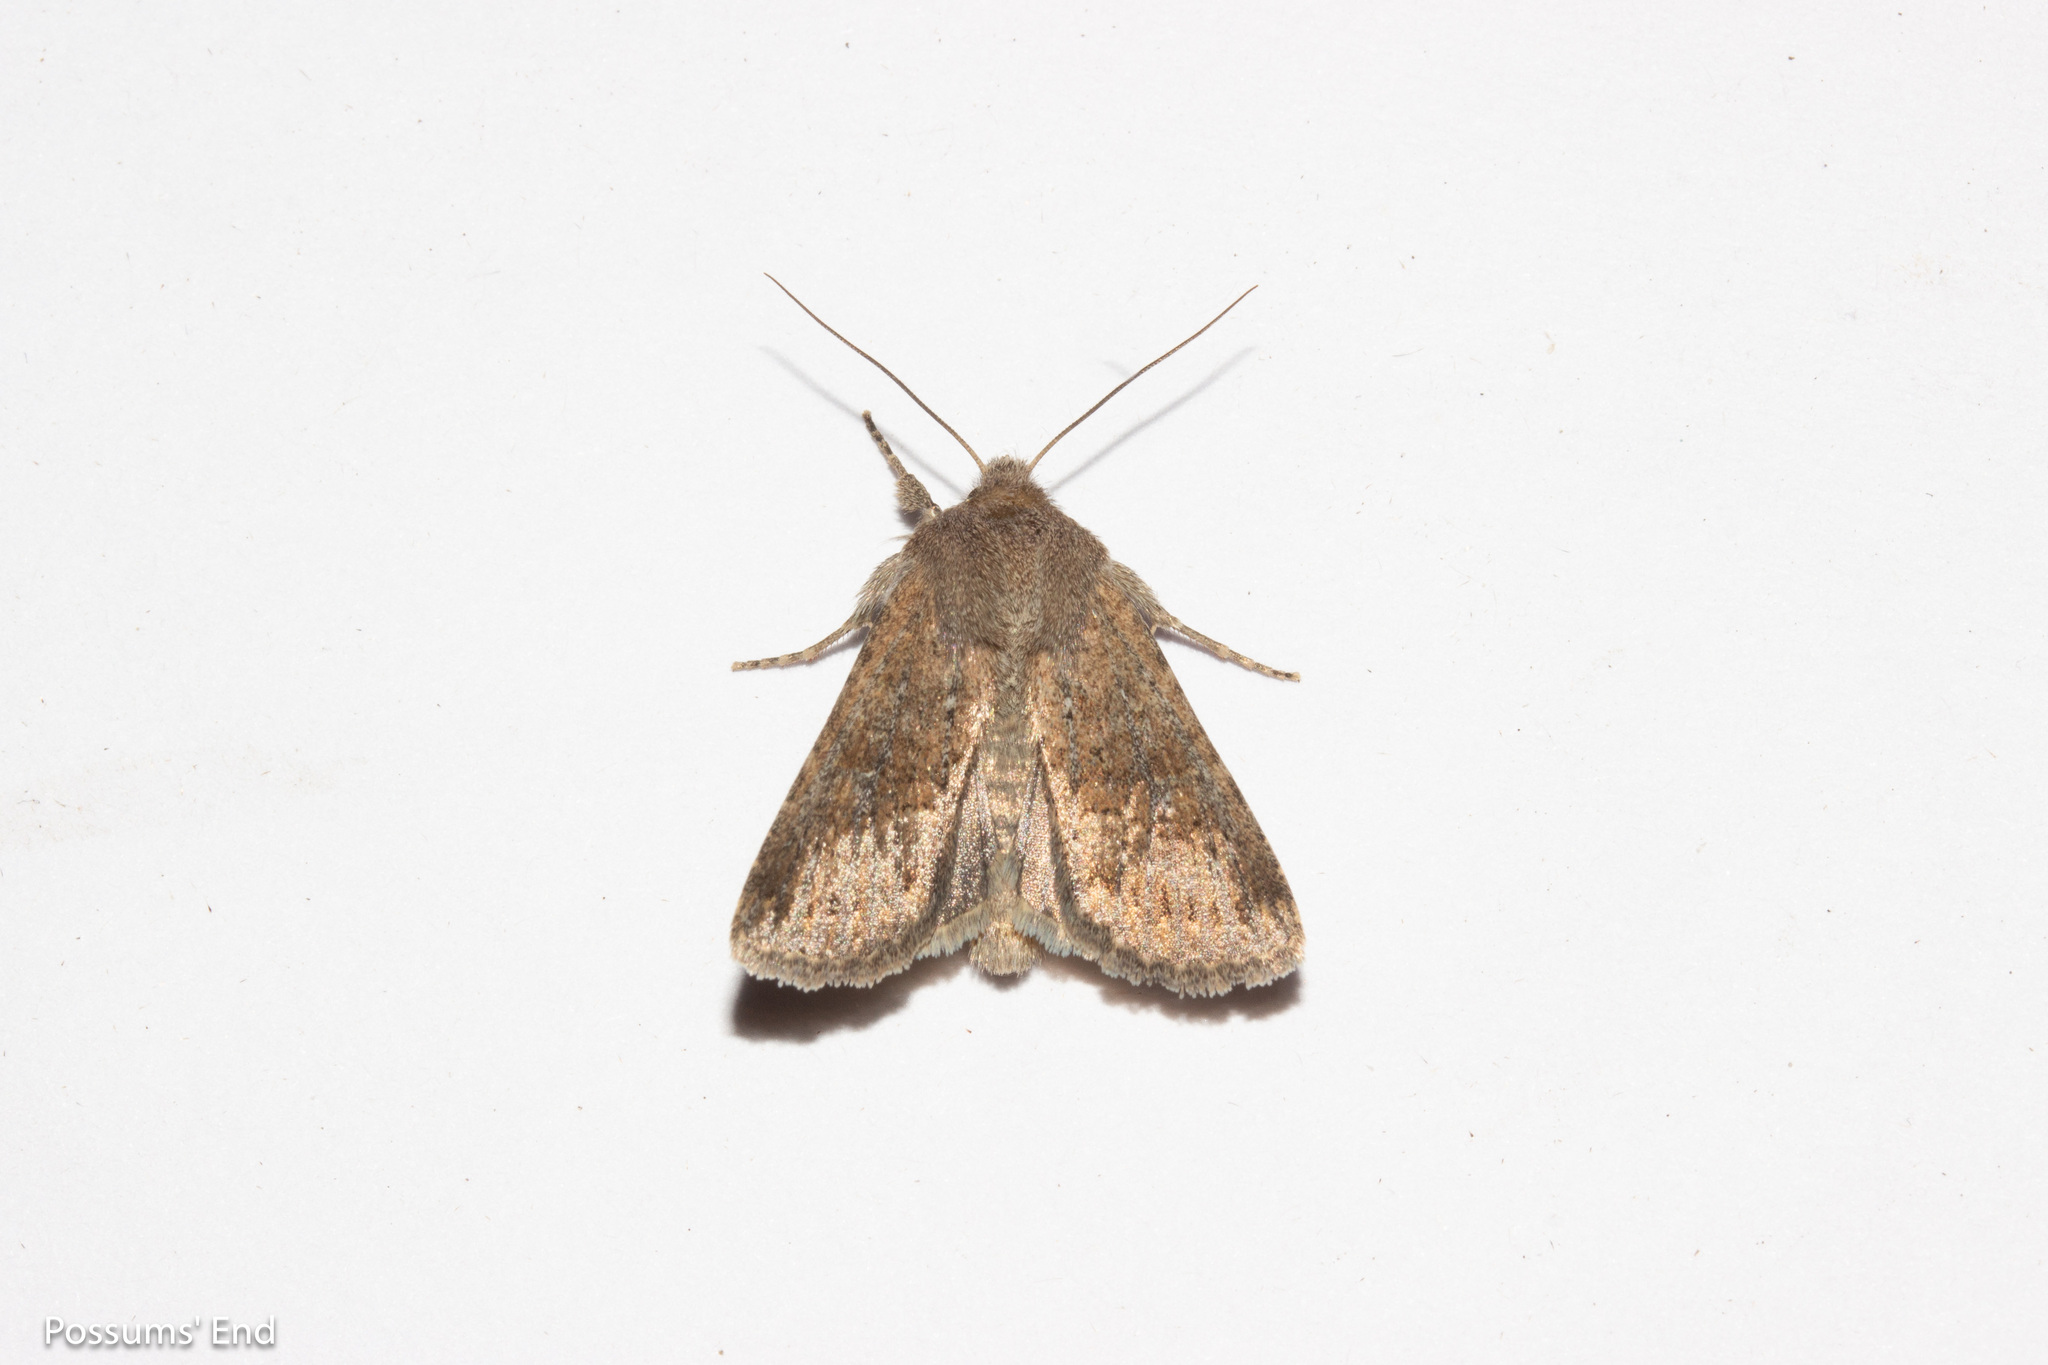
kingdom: Animalia
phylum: Arthropoda
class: Insecta
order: Lepidoptera
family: Noctuidae
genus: Physetica
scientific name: Physetica
